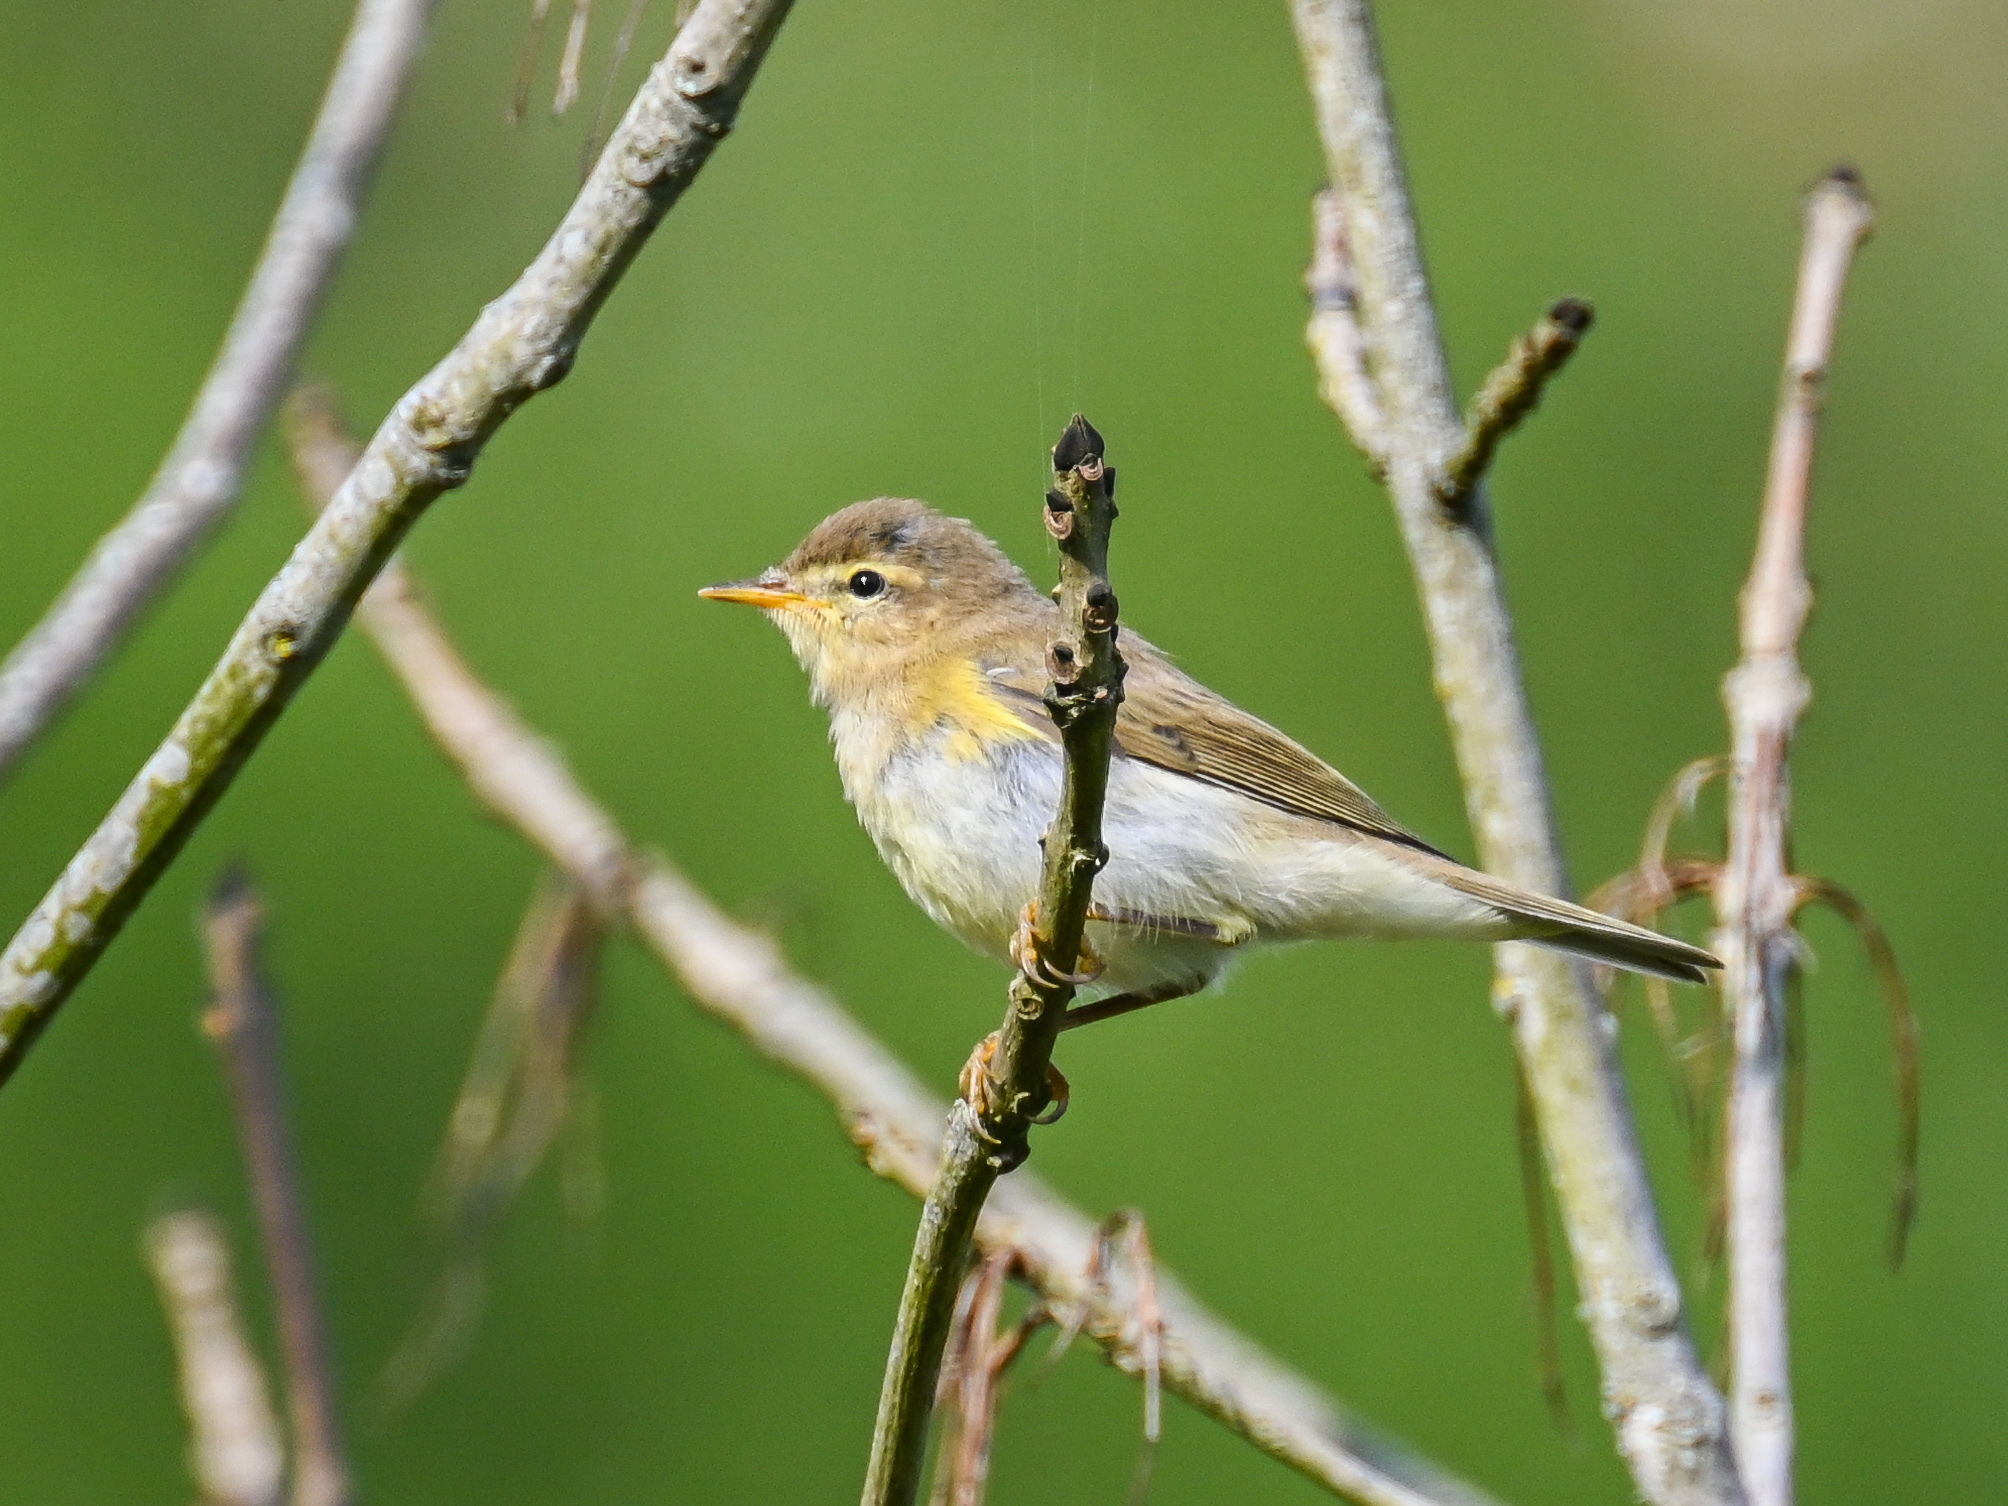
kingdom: Animalia
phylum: Chordata
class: Aves
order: Passeriformes
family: Phylloscopidae
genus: Phylloscopus
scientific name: Phylloscopus trochilus
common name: Willow warbler
